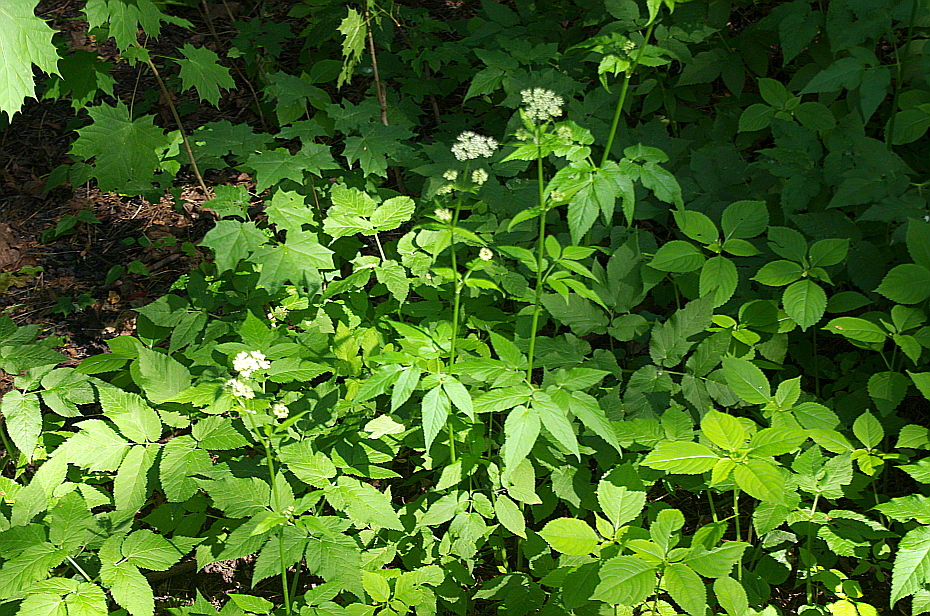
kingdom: Plantae
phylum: Tracheophyta
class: Magnoliopsida
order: Apiales
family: Apiaceae
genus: Aegopodium
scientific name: Aegopodium podagraria
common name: Ground-elder
